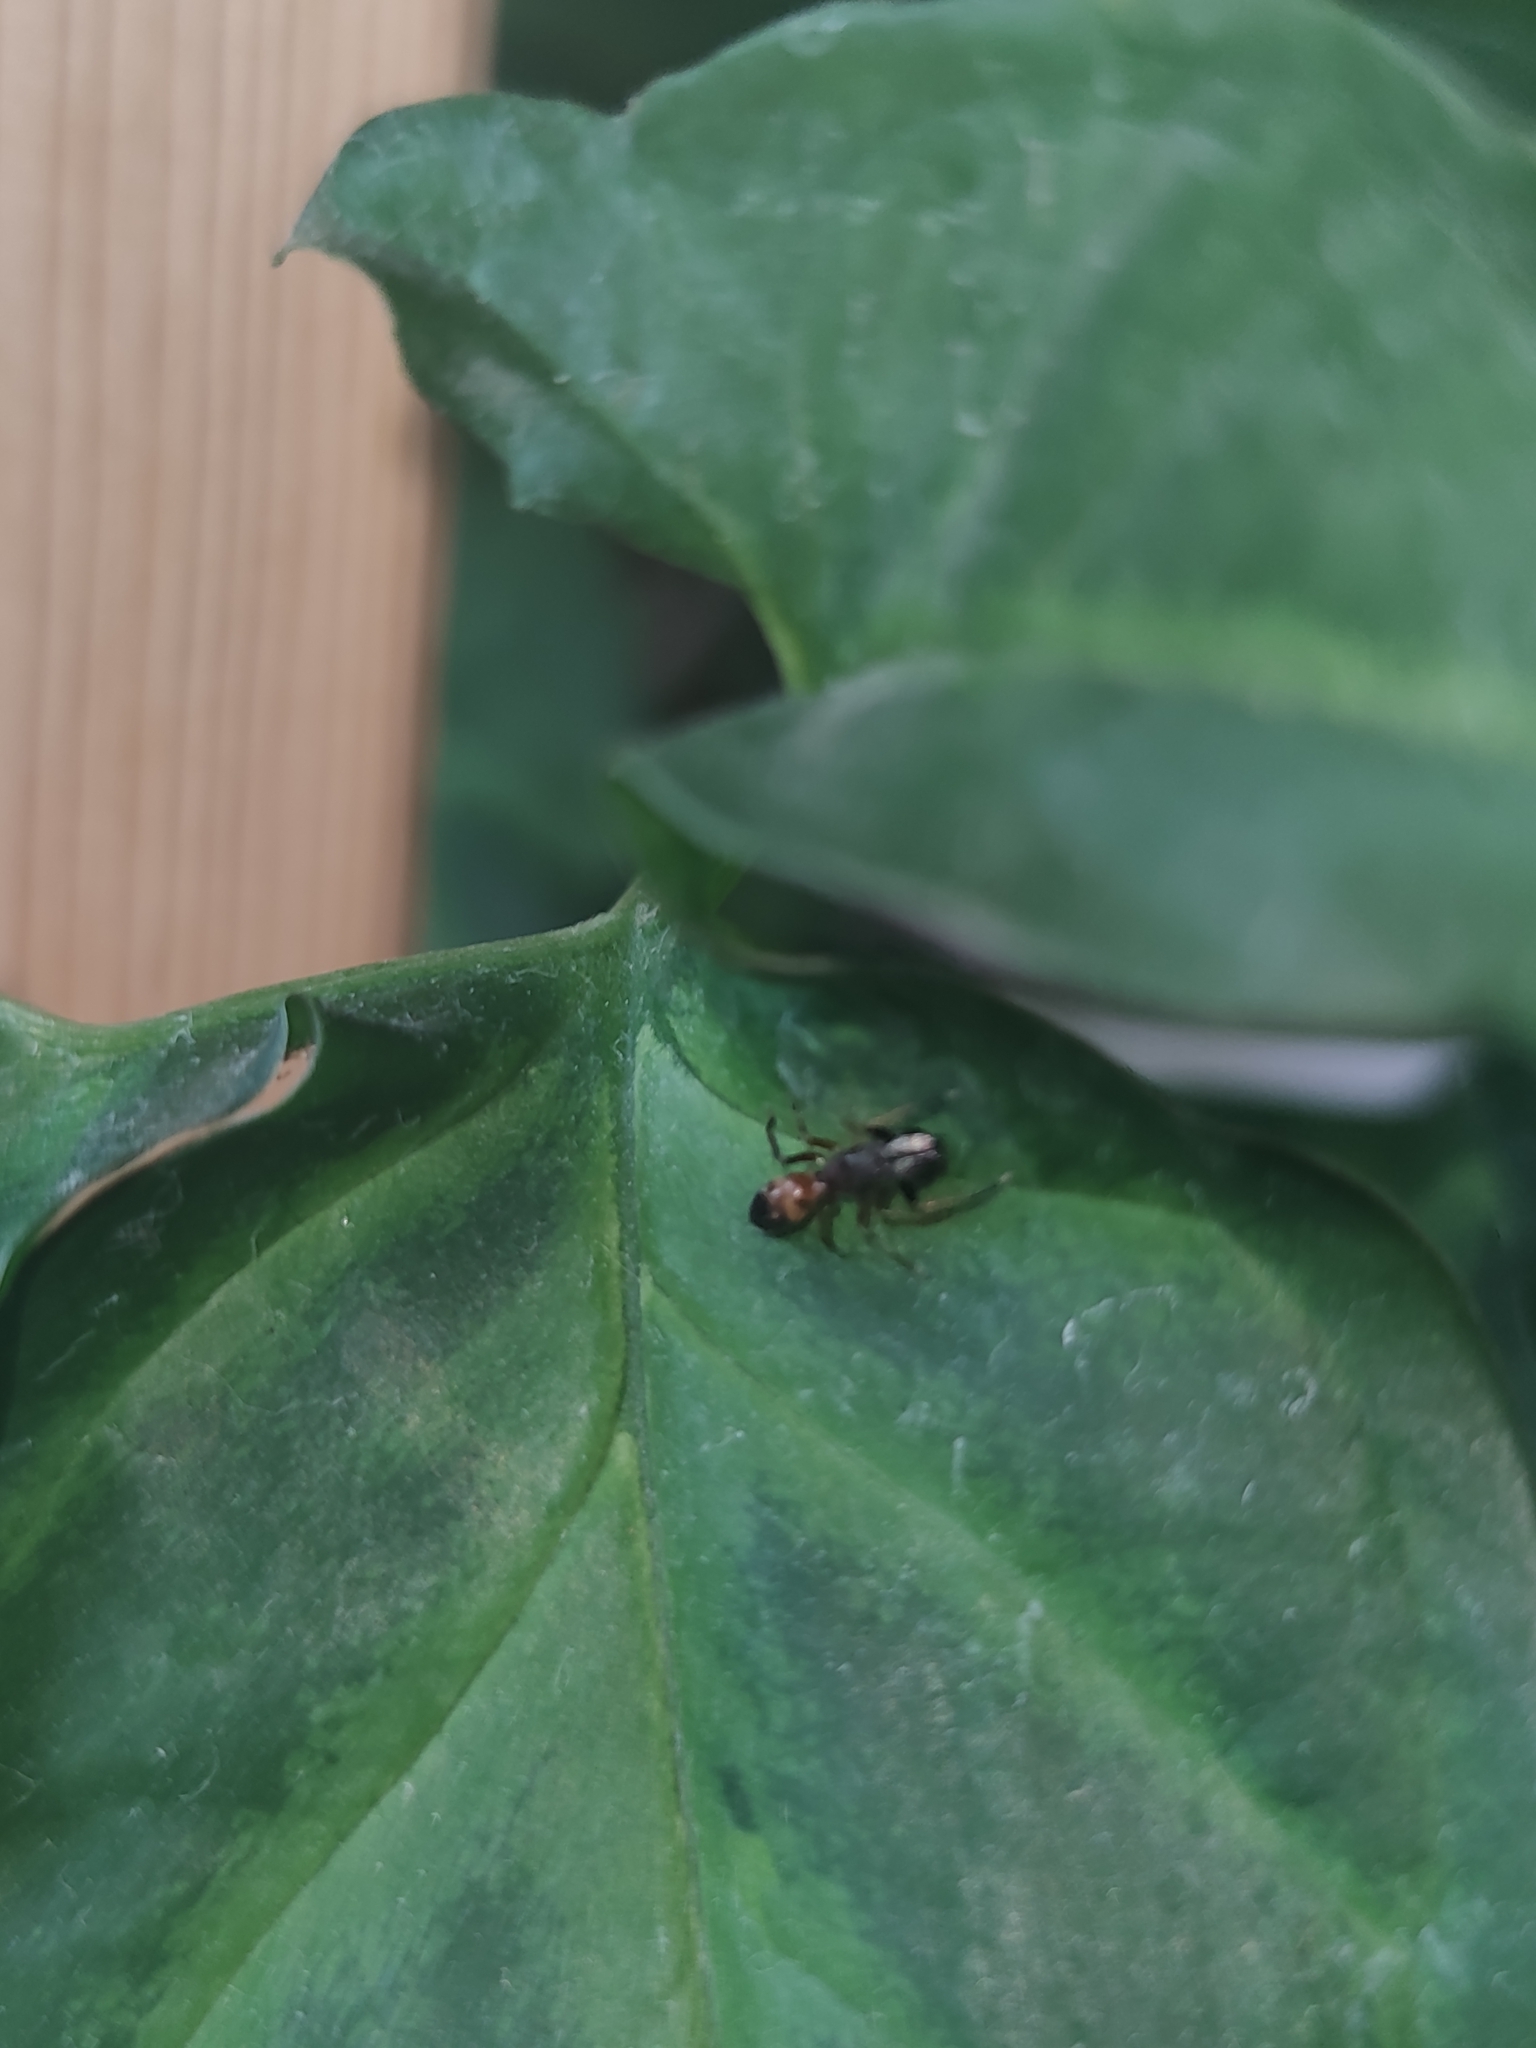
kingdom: Animalia
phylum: Arthropoda
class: Arachnida
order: Araneae
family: Salticidae
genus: Myrmarachne
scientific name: Myrmarachne formicaria
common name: Ant mimic jumping spider
